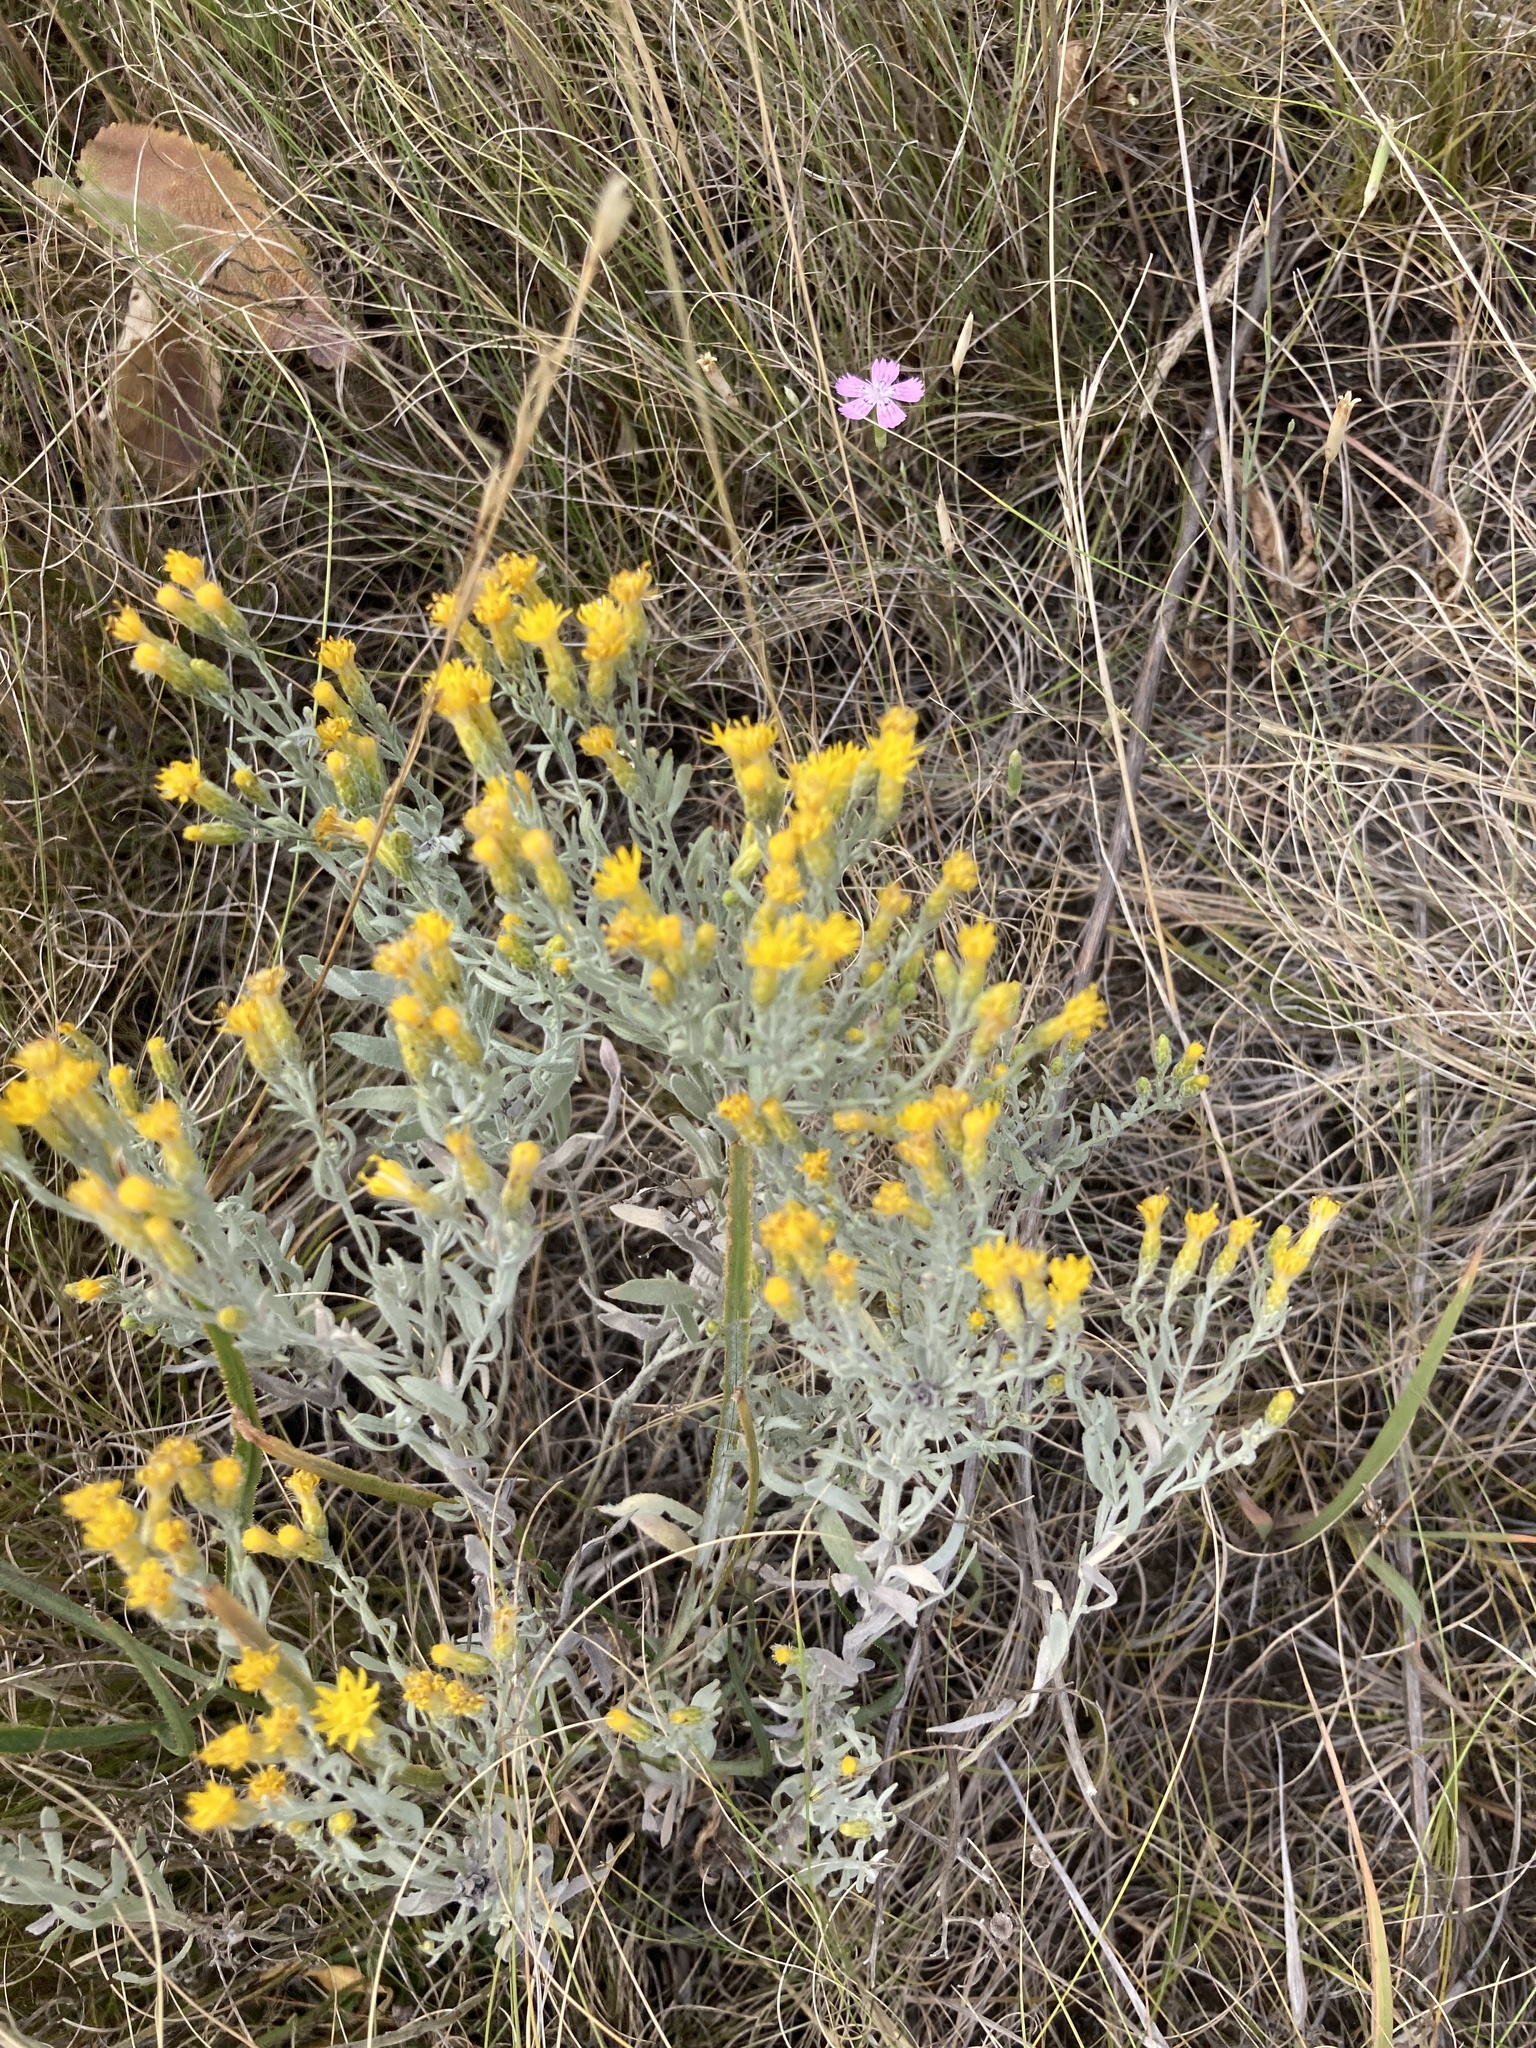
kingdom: Plantae
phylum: Tracheophyta
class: Magnoliopsida
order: Asterales
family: Asteraceae
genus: Galatella
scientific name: Galatella villosa
